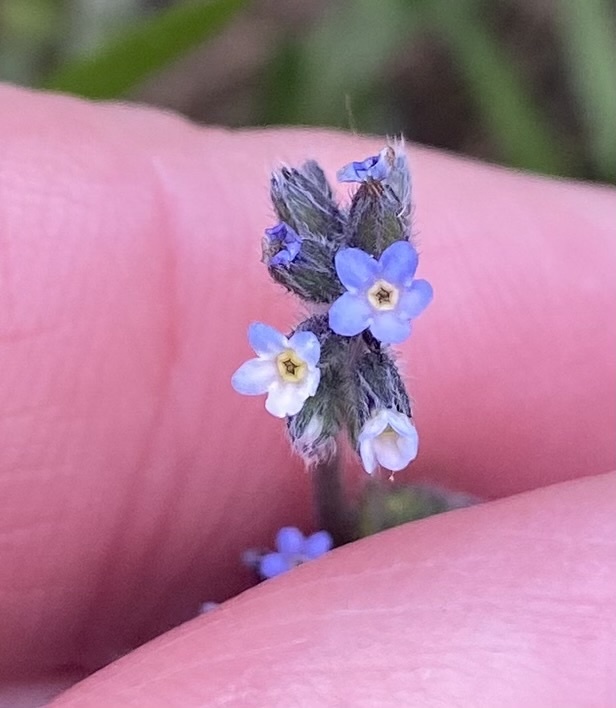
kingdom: Plantae
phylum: Tracheophyta
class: Magnoliopsida
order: Boraginales
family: Boraginaceae
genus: Myosotis
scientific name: Myosotis discolor
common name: Changing forget-me-not
